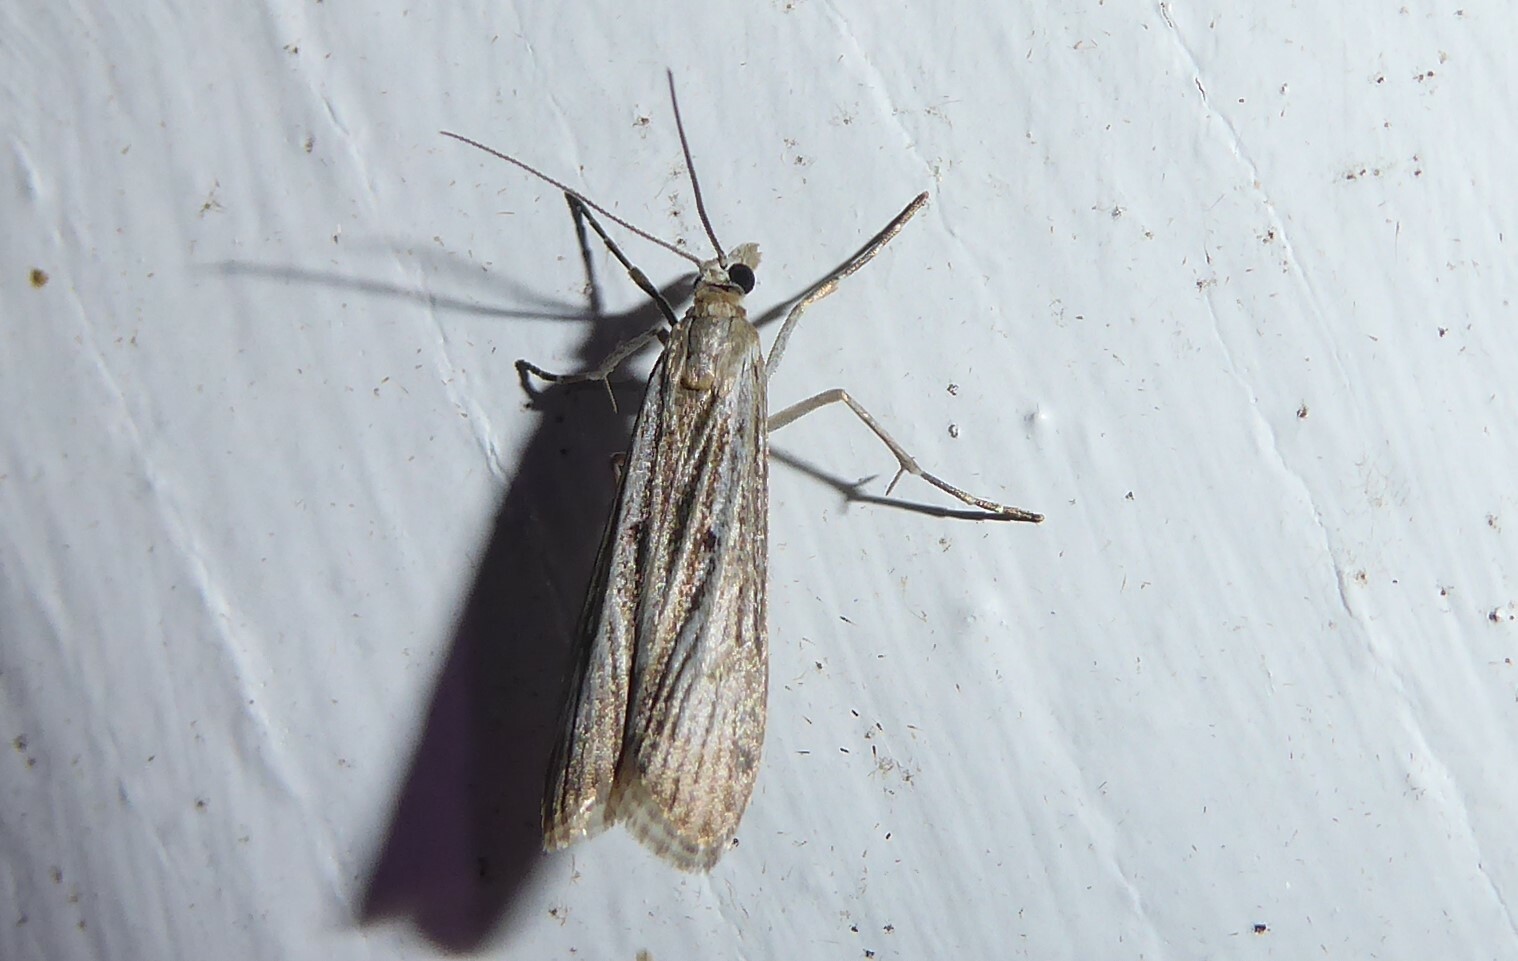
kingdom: Animalia
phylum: Arthropoda
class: Insecta
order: Lepidoptera
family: Crambidae
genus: Eudonia
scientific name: Eudonia atmogramma
